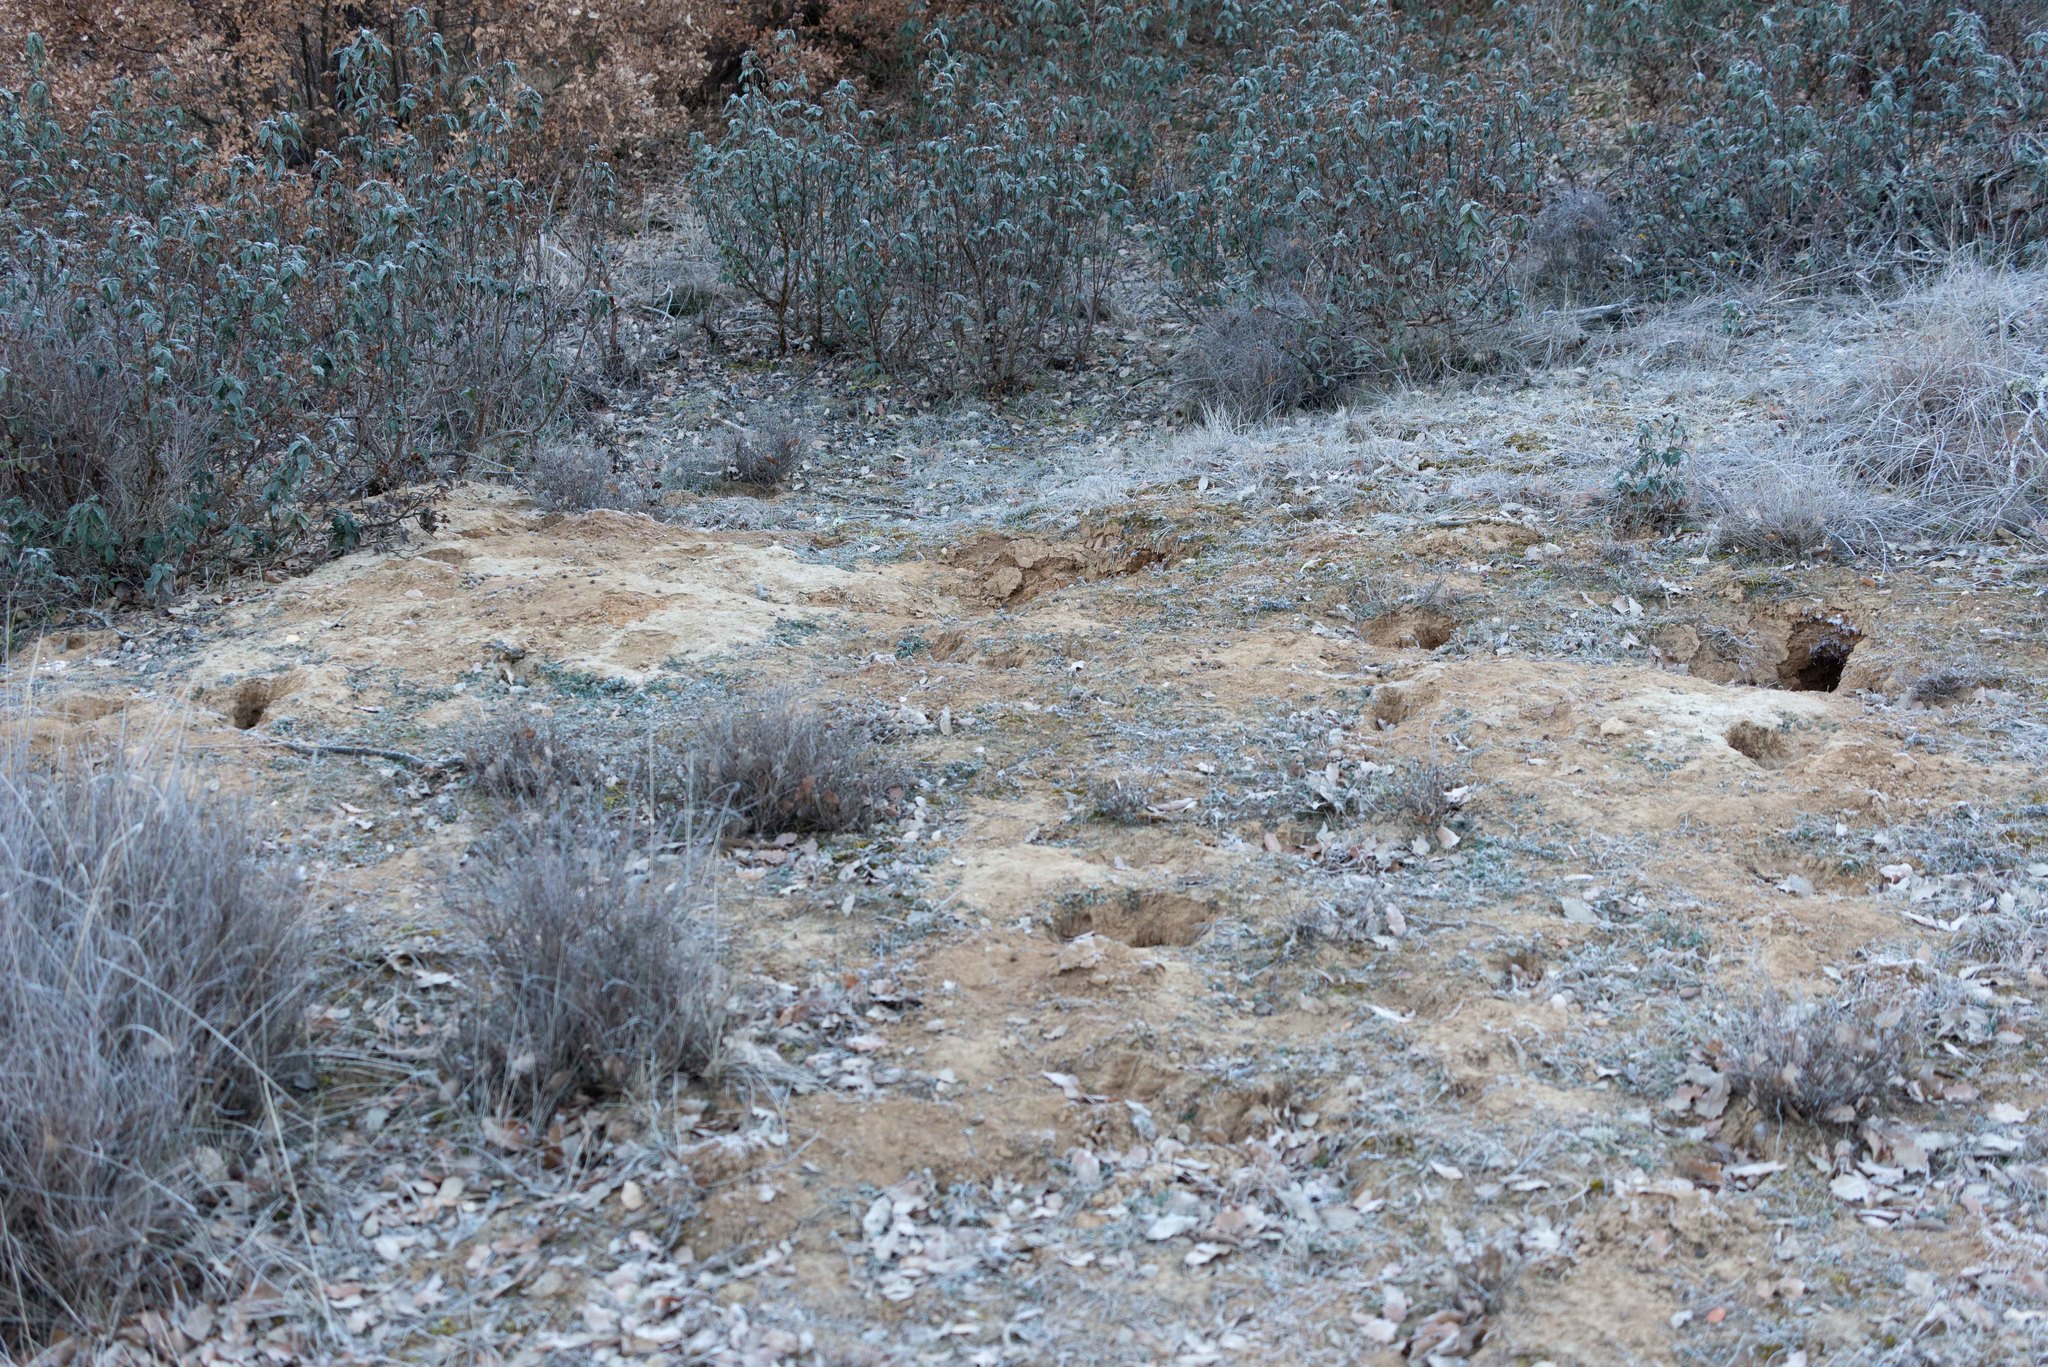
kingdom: Animalia
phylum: Chordata
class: Mammalia
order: Lagomorpha
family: Leporidae
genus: Oryctolagus
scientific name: Oryctolagus cuniculus
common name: European rabbit
